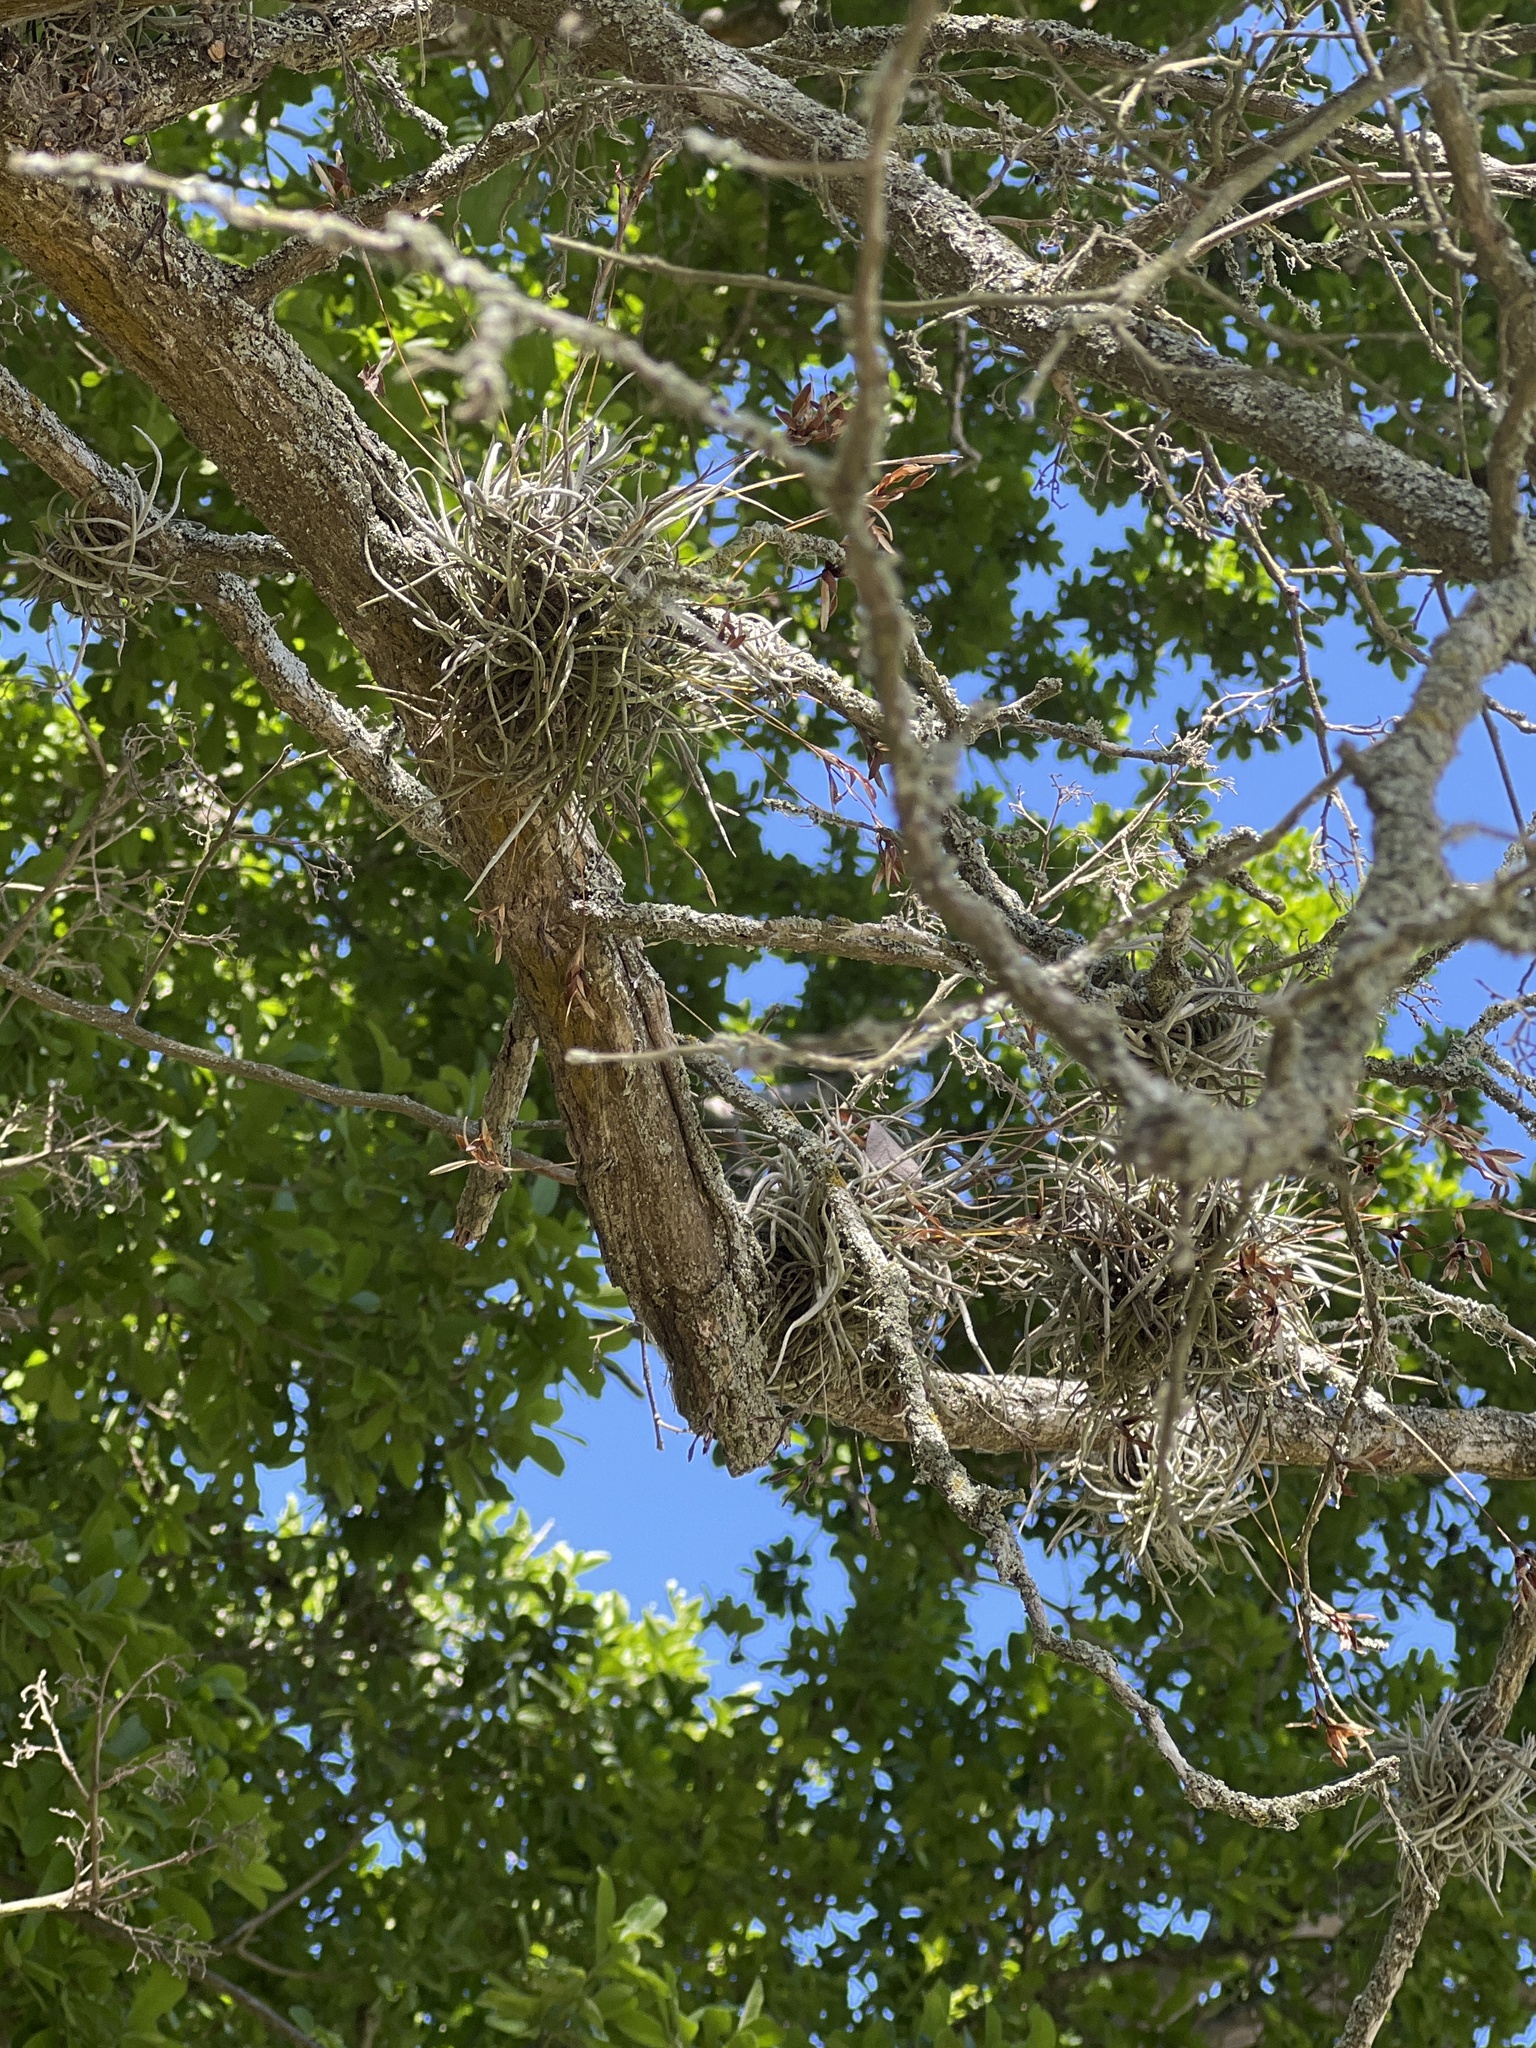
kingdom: Plantae
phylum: Tracheophyta
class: Liliopsida
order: Poales
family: Bromeliaceae
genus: Tillandsia
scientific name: Tillandsia recurvata
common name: Small ballmoss
